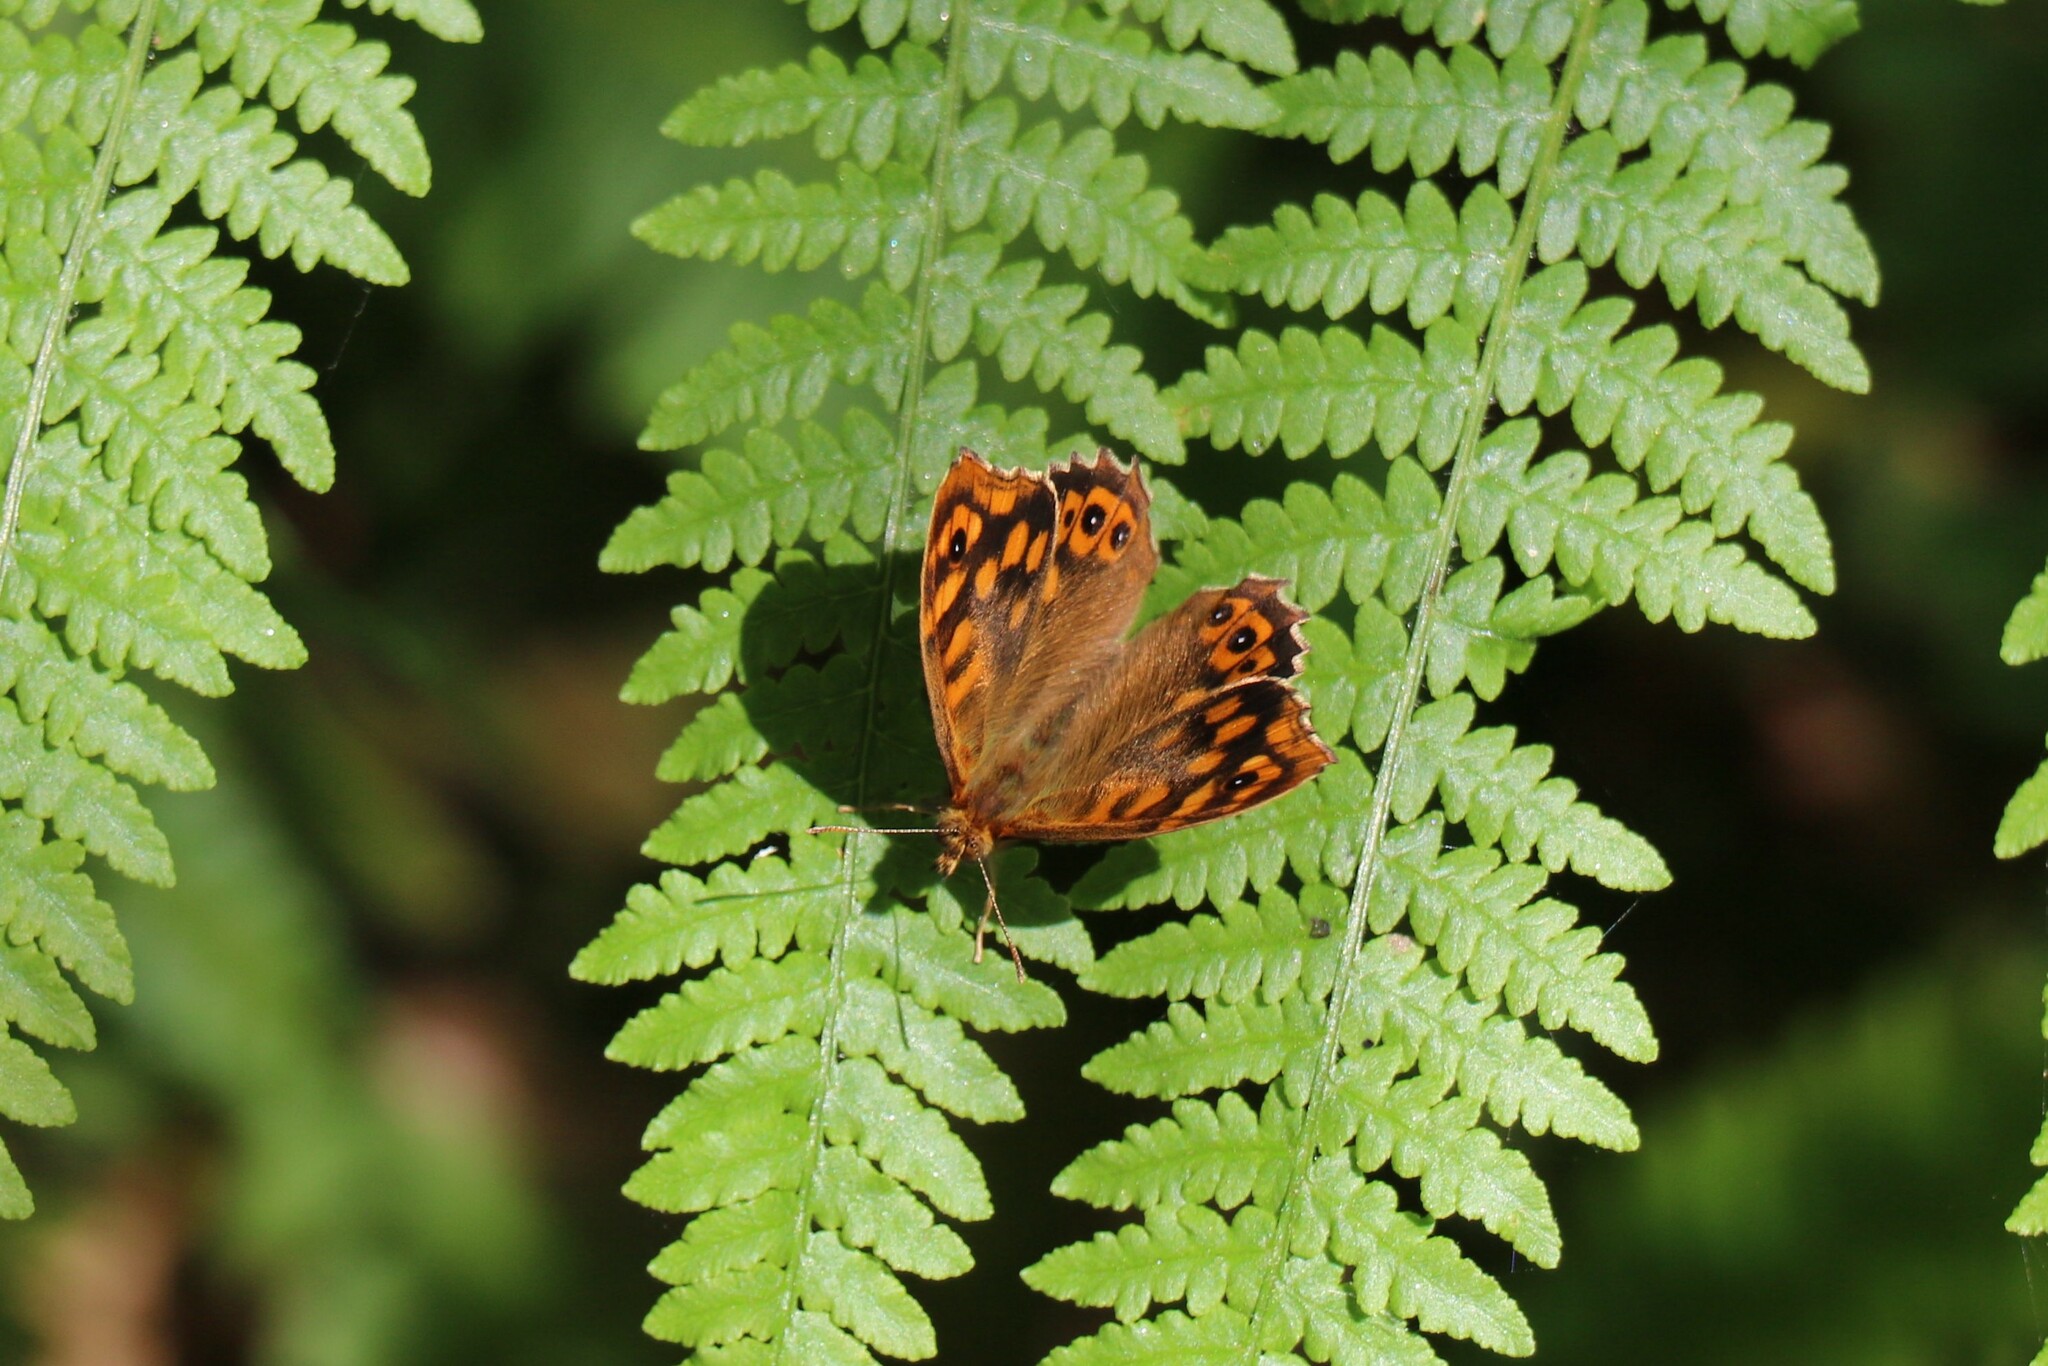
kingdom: Animalia
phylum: Arthropoda
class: Insecta
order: Lepidoptera
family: Nymphalidae
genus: Pararge
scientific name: Pararge aegeria
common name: Speckled wood
